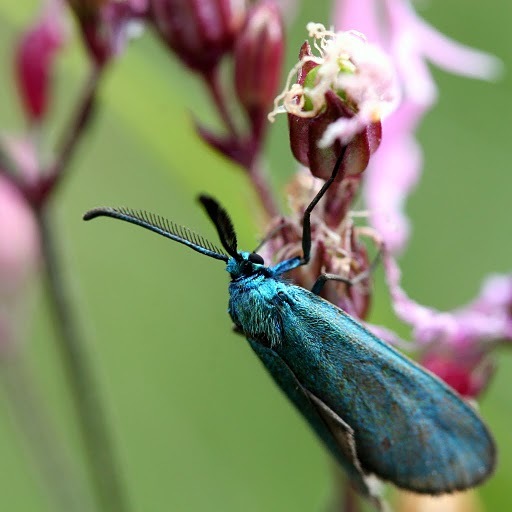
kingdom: Animalia
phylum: Arthropoda
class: Insecta
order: Lepidoptera
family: Zygaenidae
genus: Adscita
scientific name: Adscita statices
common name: Forester
